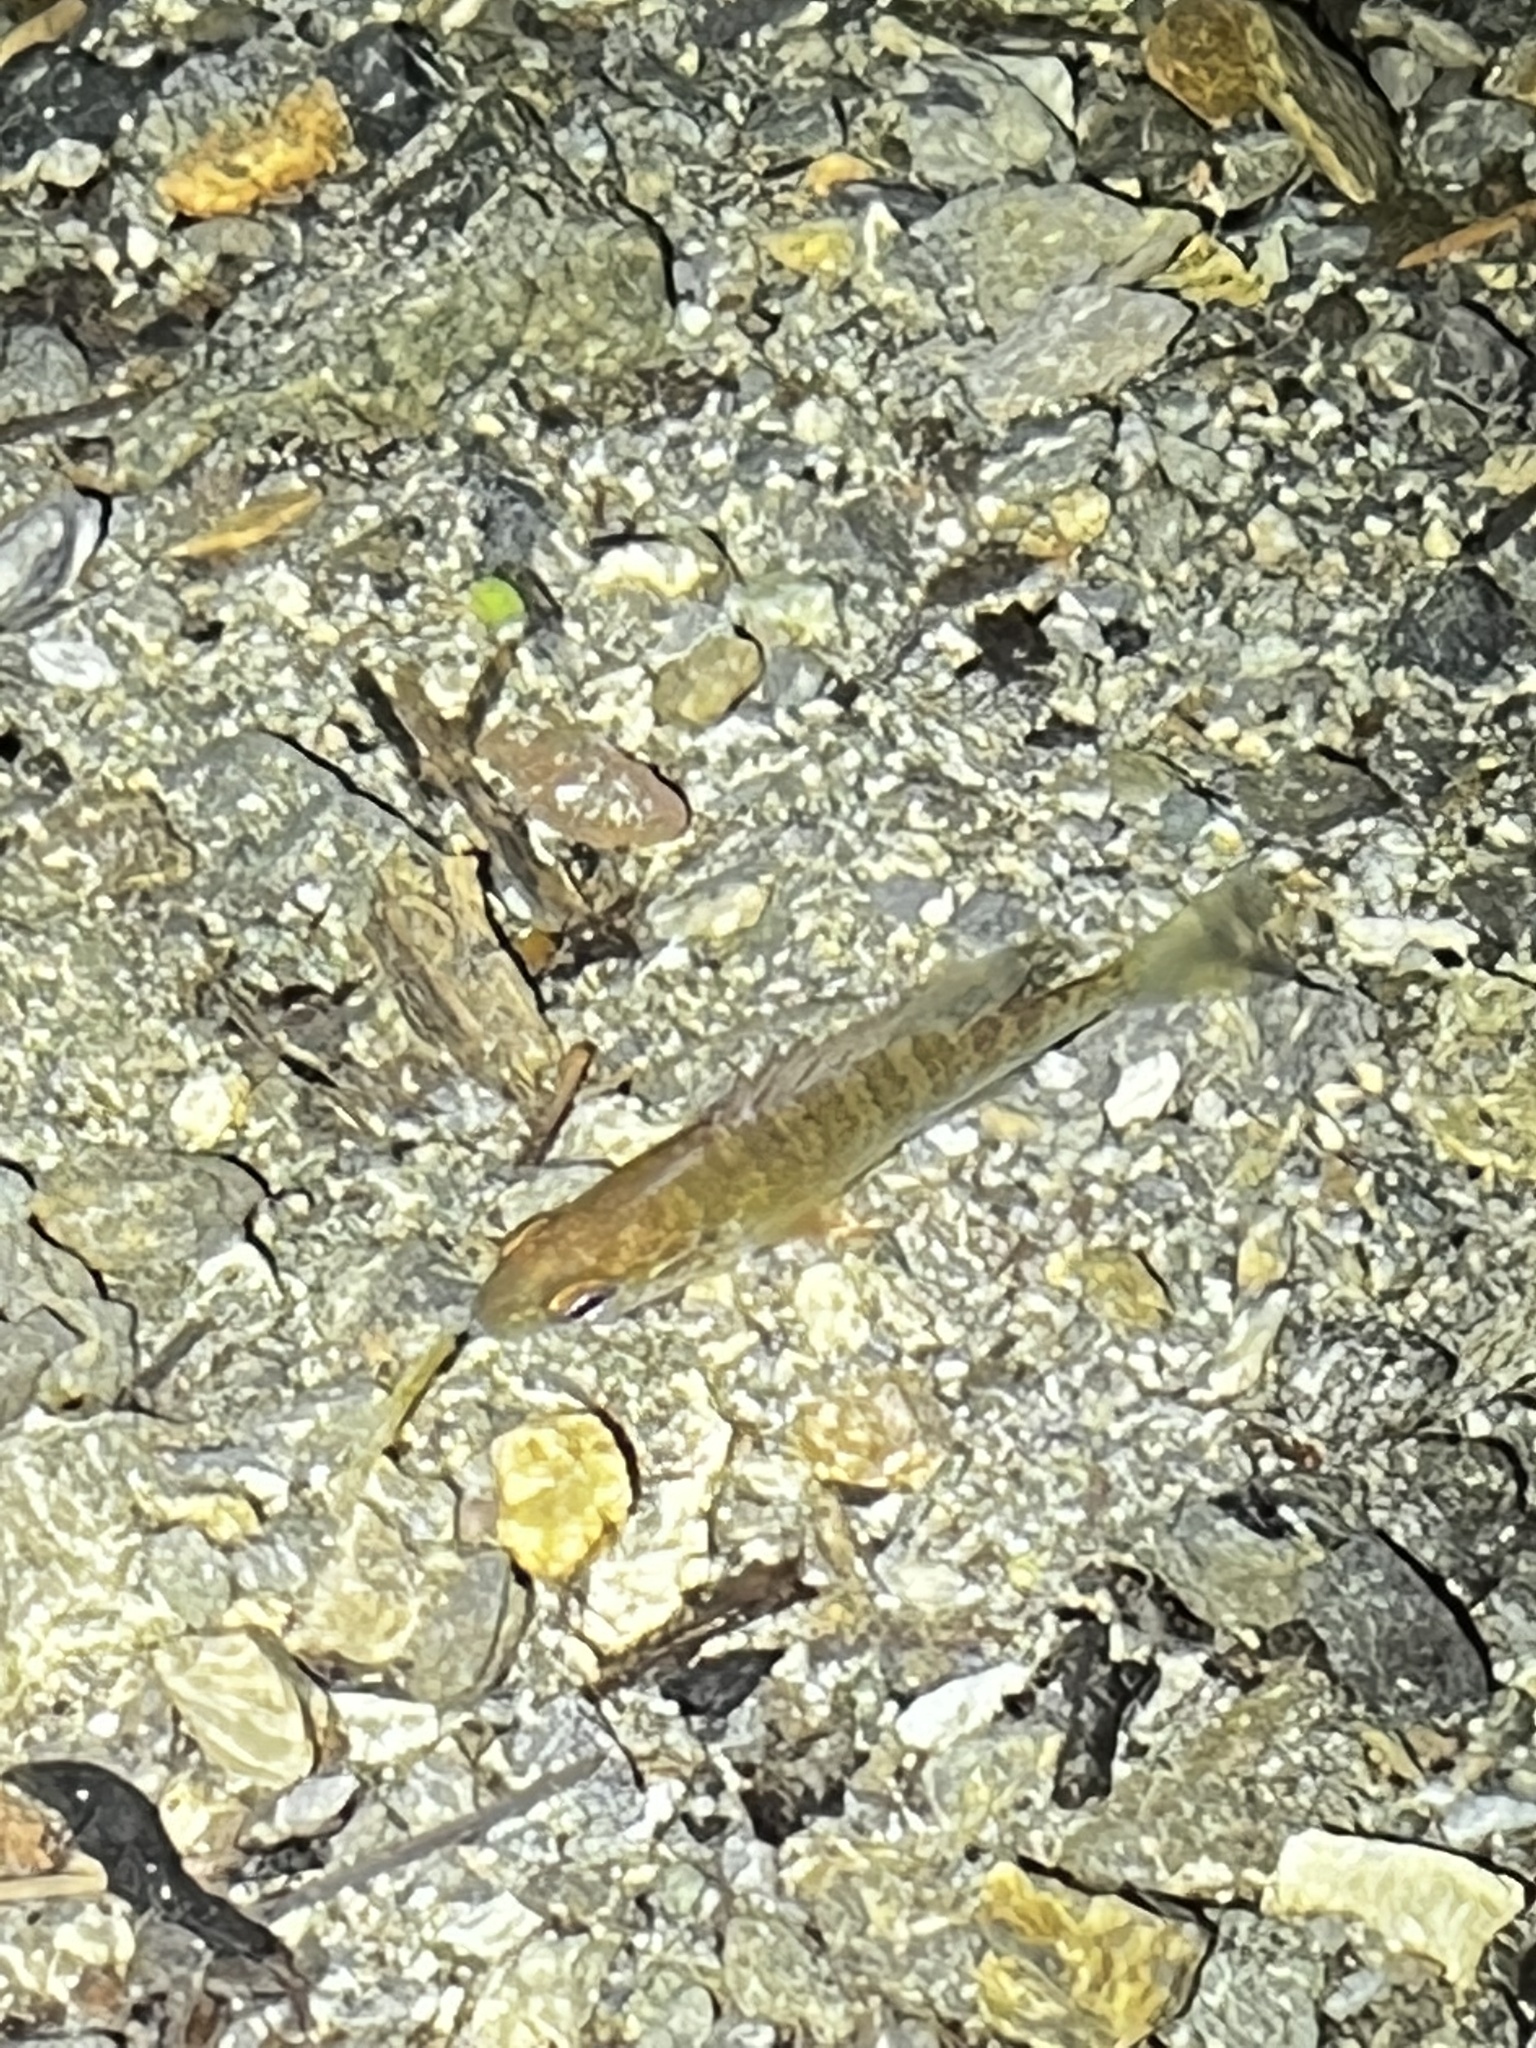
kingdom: Animalia
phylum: Chordata
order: Perciformes
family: Centrarchidae
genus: Lepomis
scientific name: Lepomis gibbosus
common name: Pumpkinseed
